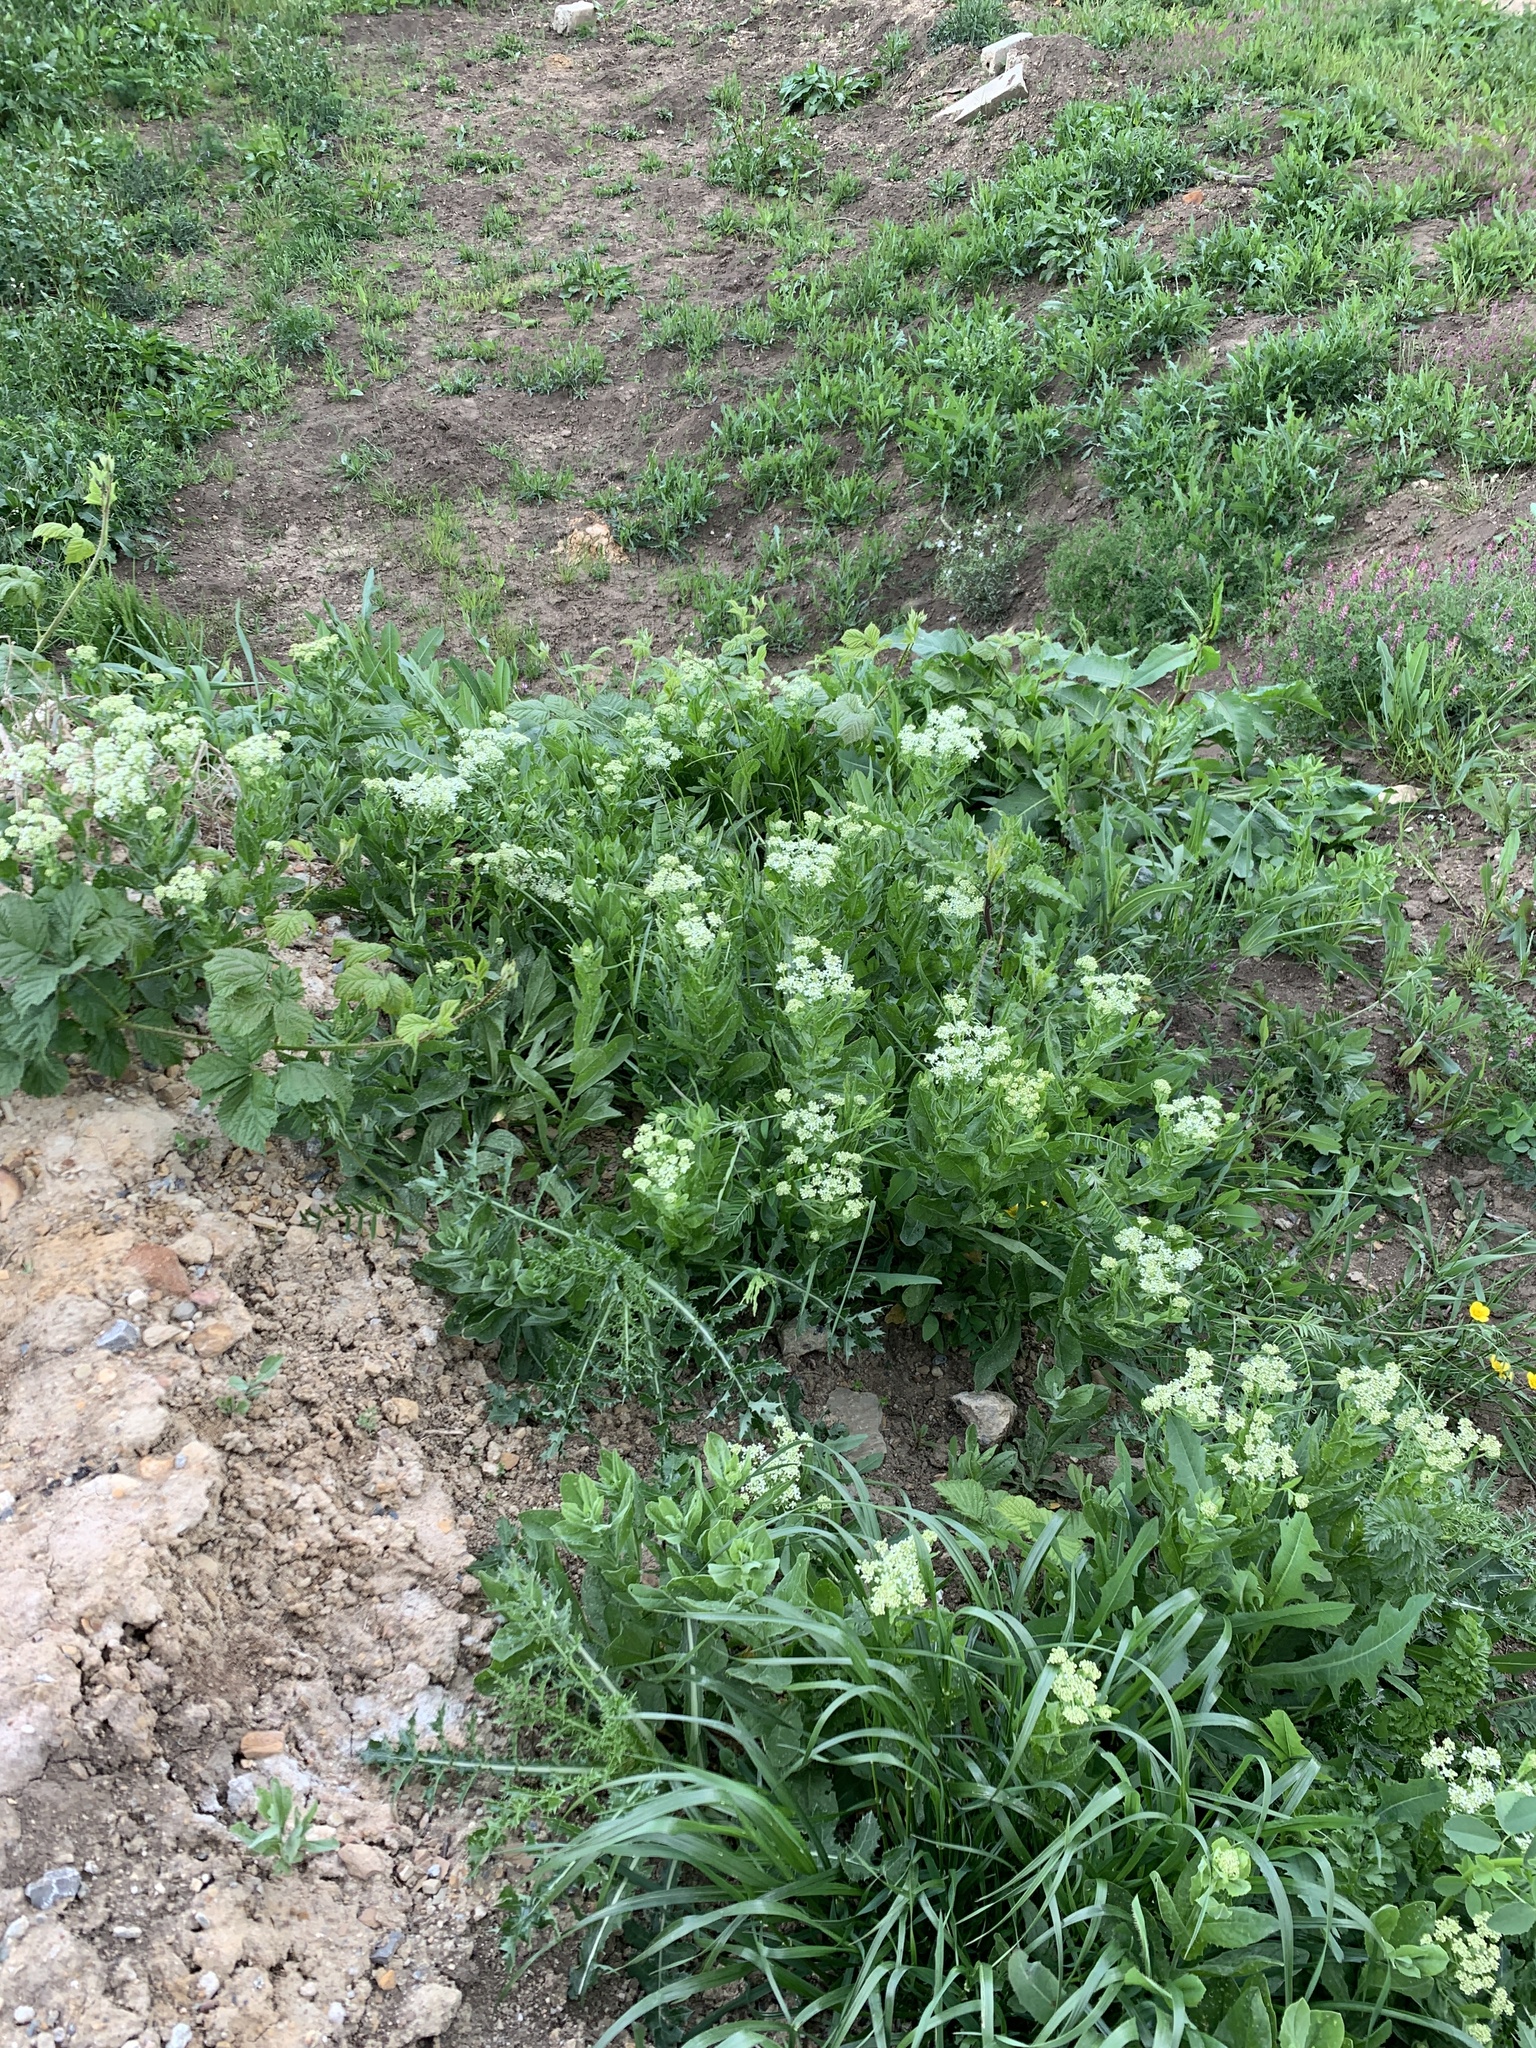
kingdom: Plantae
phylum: Tracheophyta
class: Magnoliopsida
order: Brassicales
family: Brassicaceae
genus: Lepidium
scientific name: Lepidium draba
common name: Hoary cress
